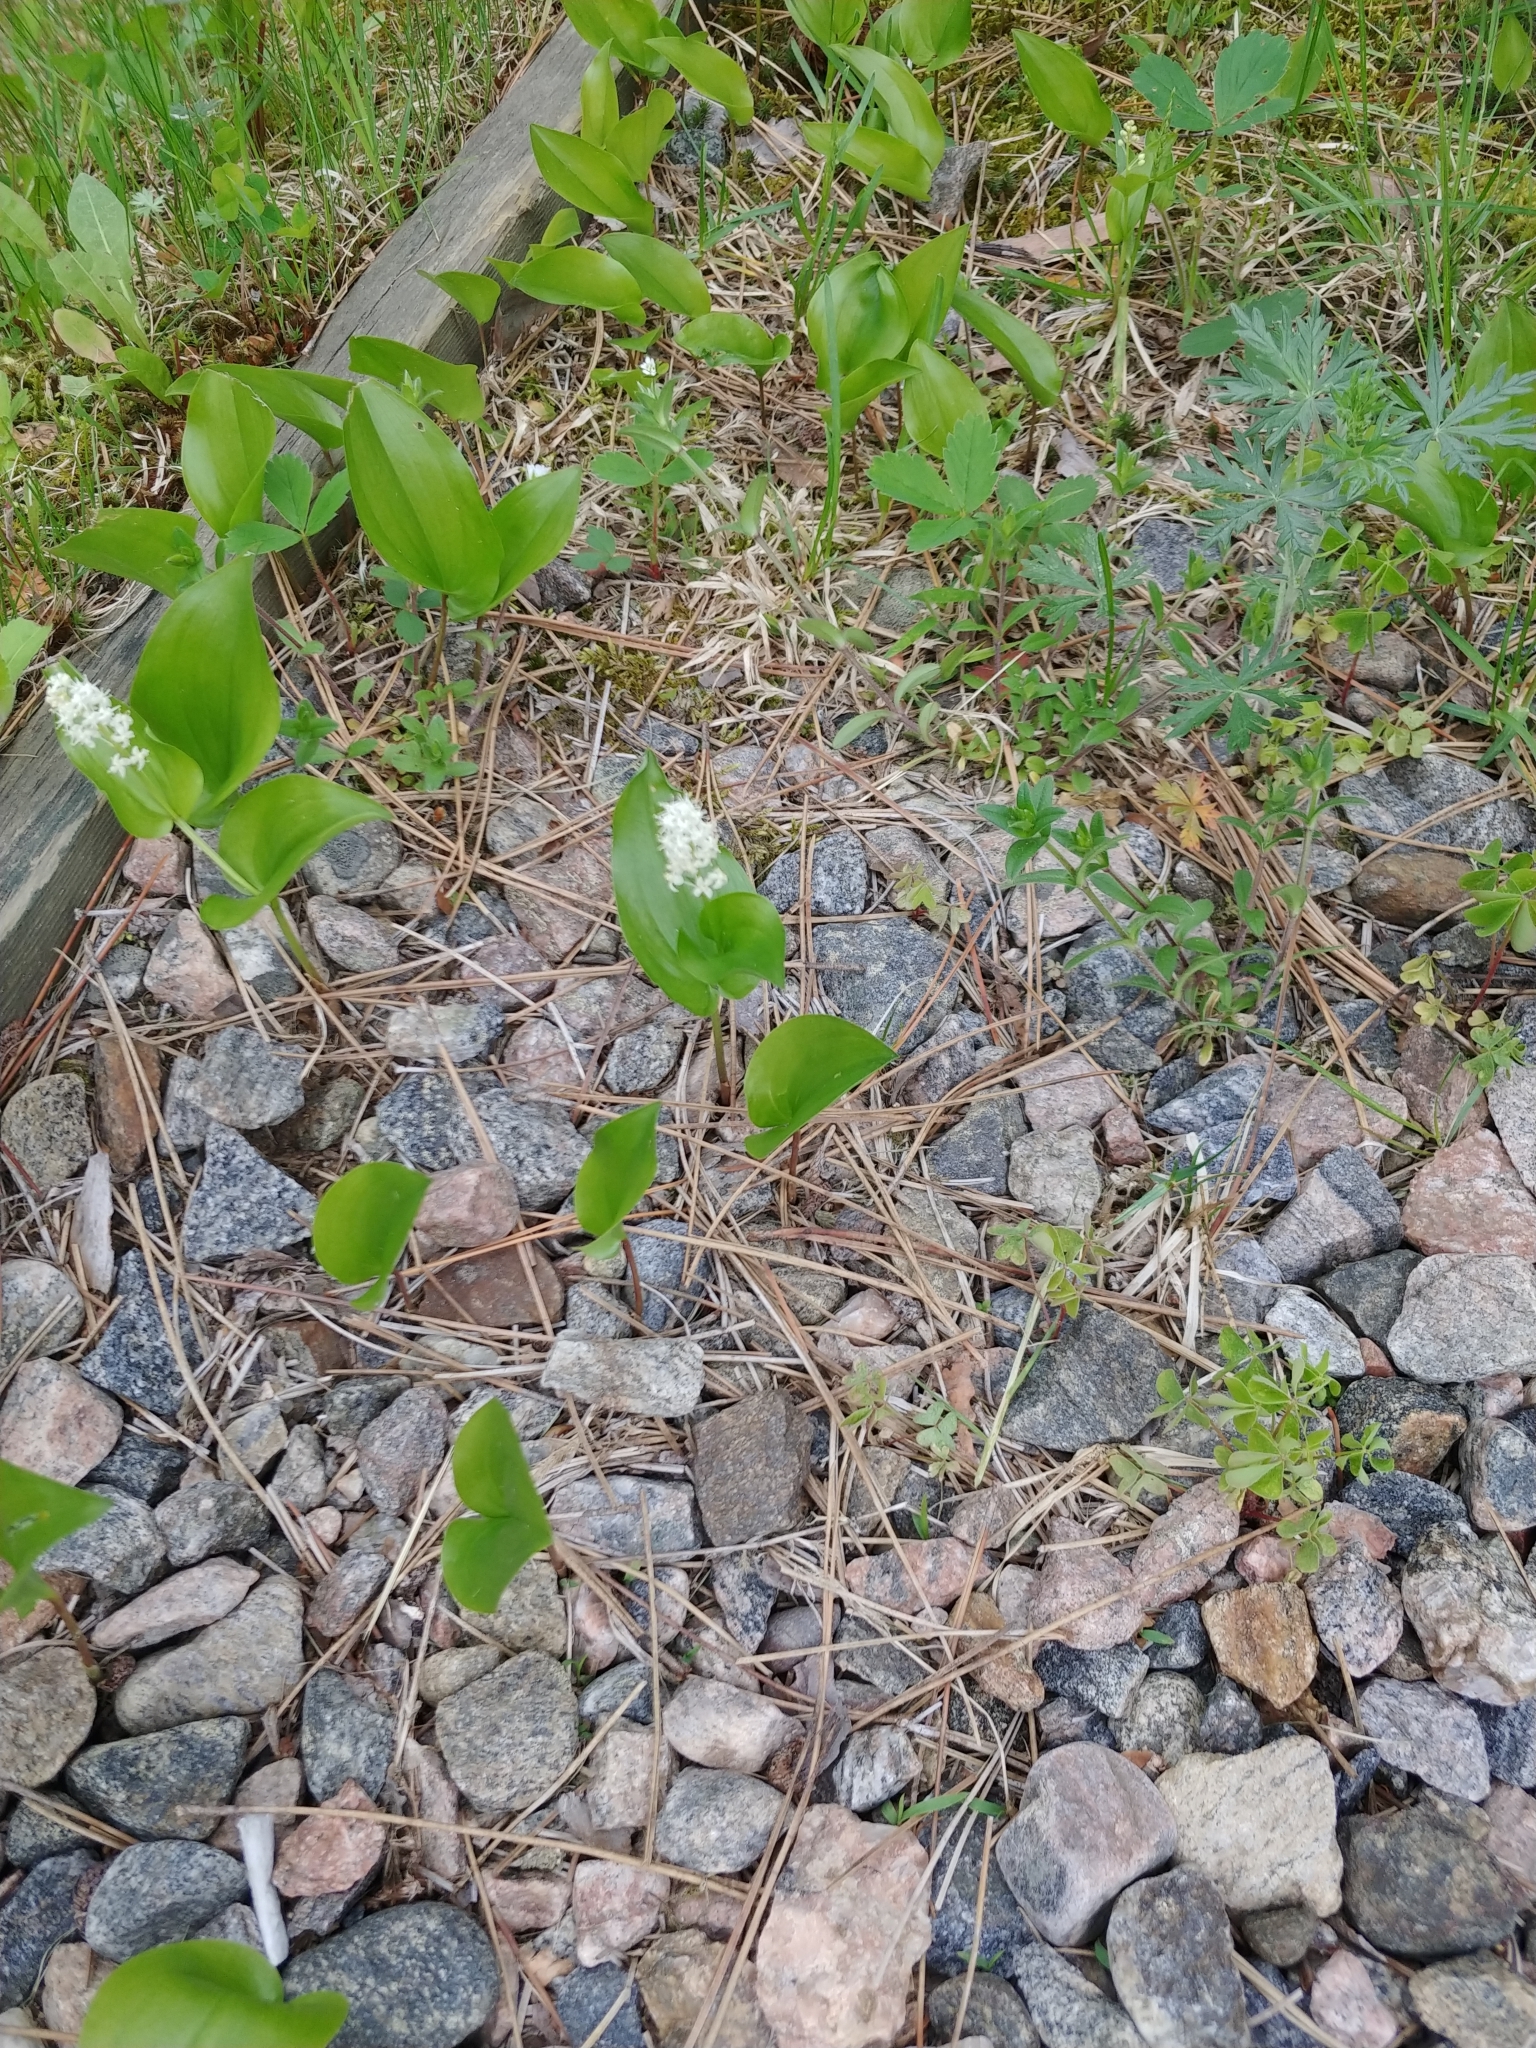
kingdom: Plantae
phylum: Tracheophyta
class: Liliopsida
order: Asparagales
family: Asparagaceae
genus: Maianthemum
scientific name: Maianthemum canadense
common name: False lily-of-the-valley
